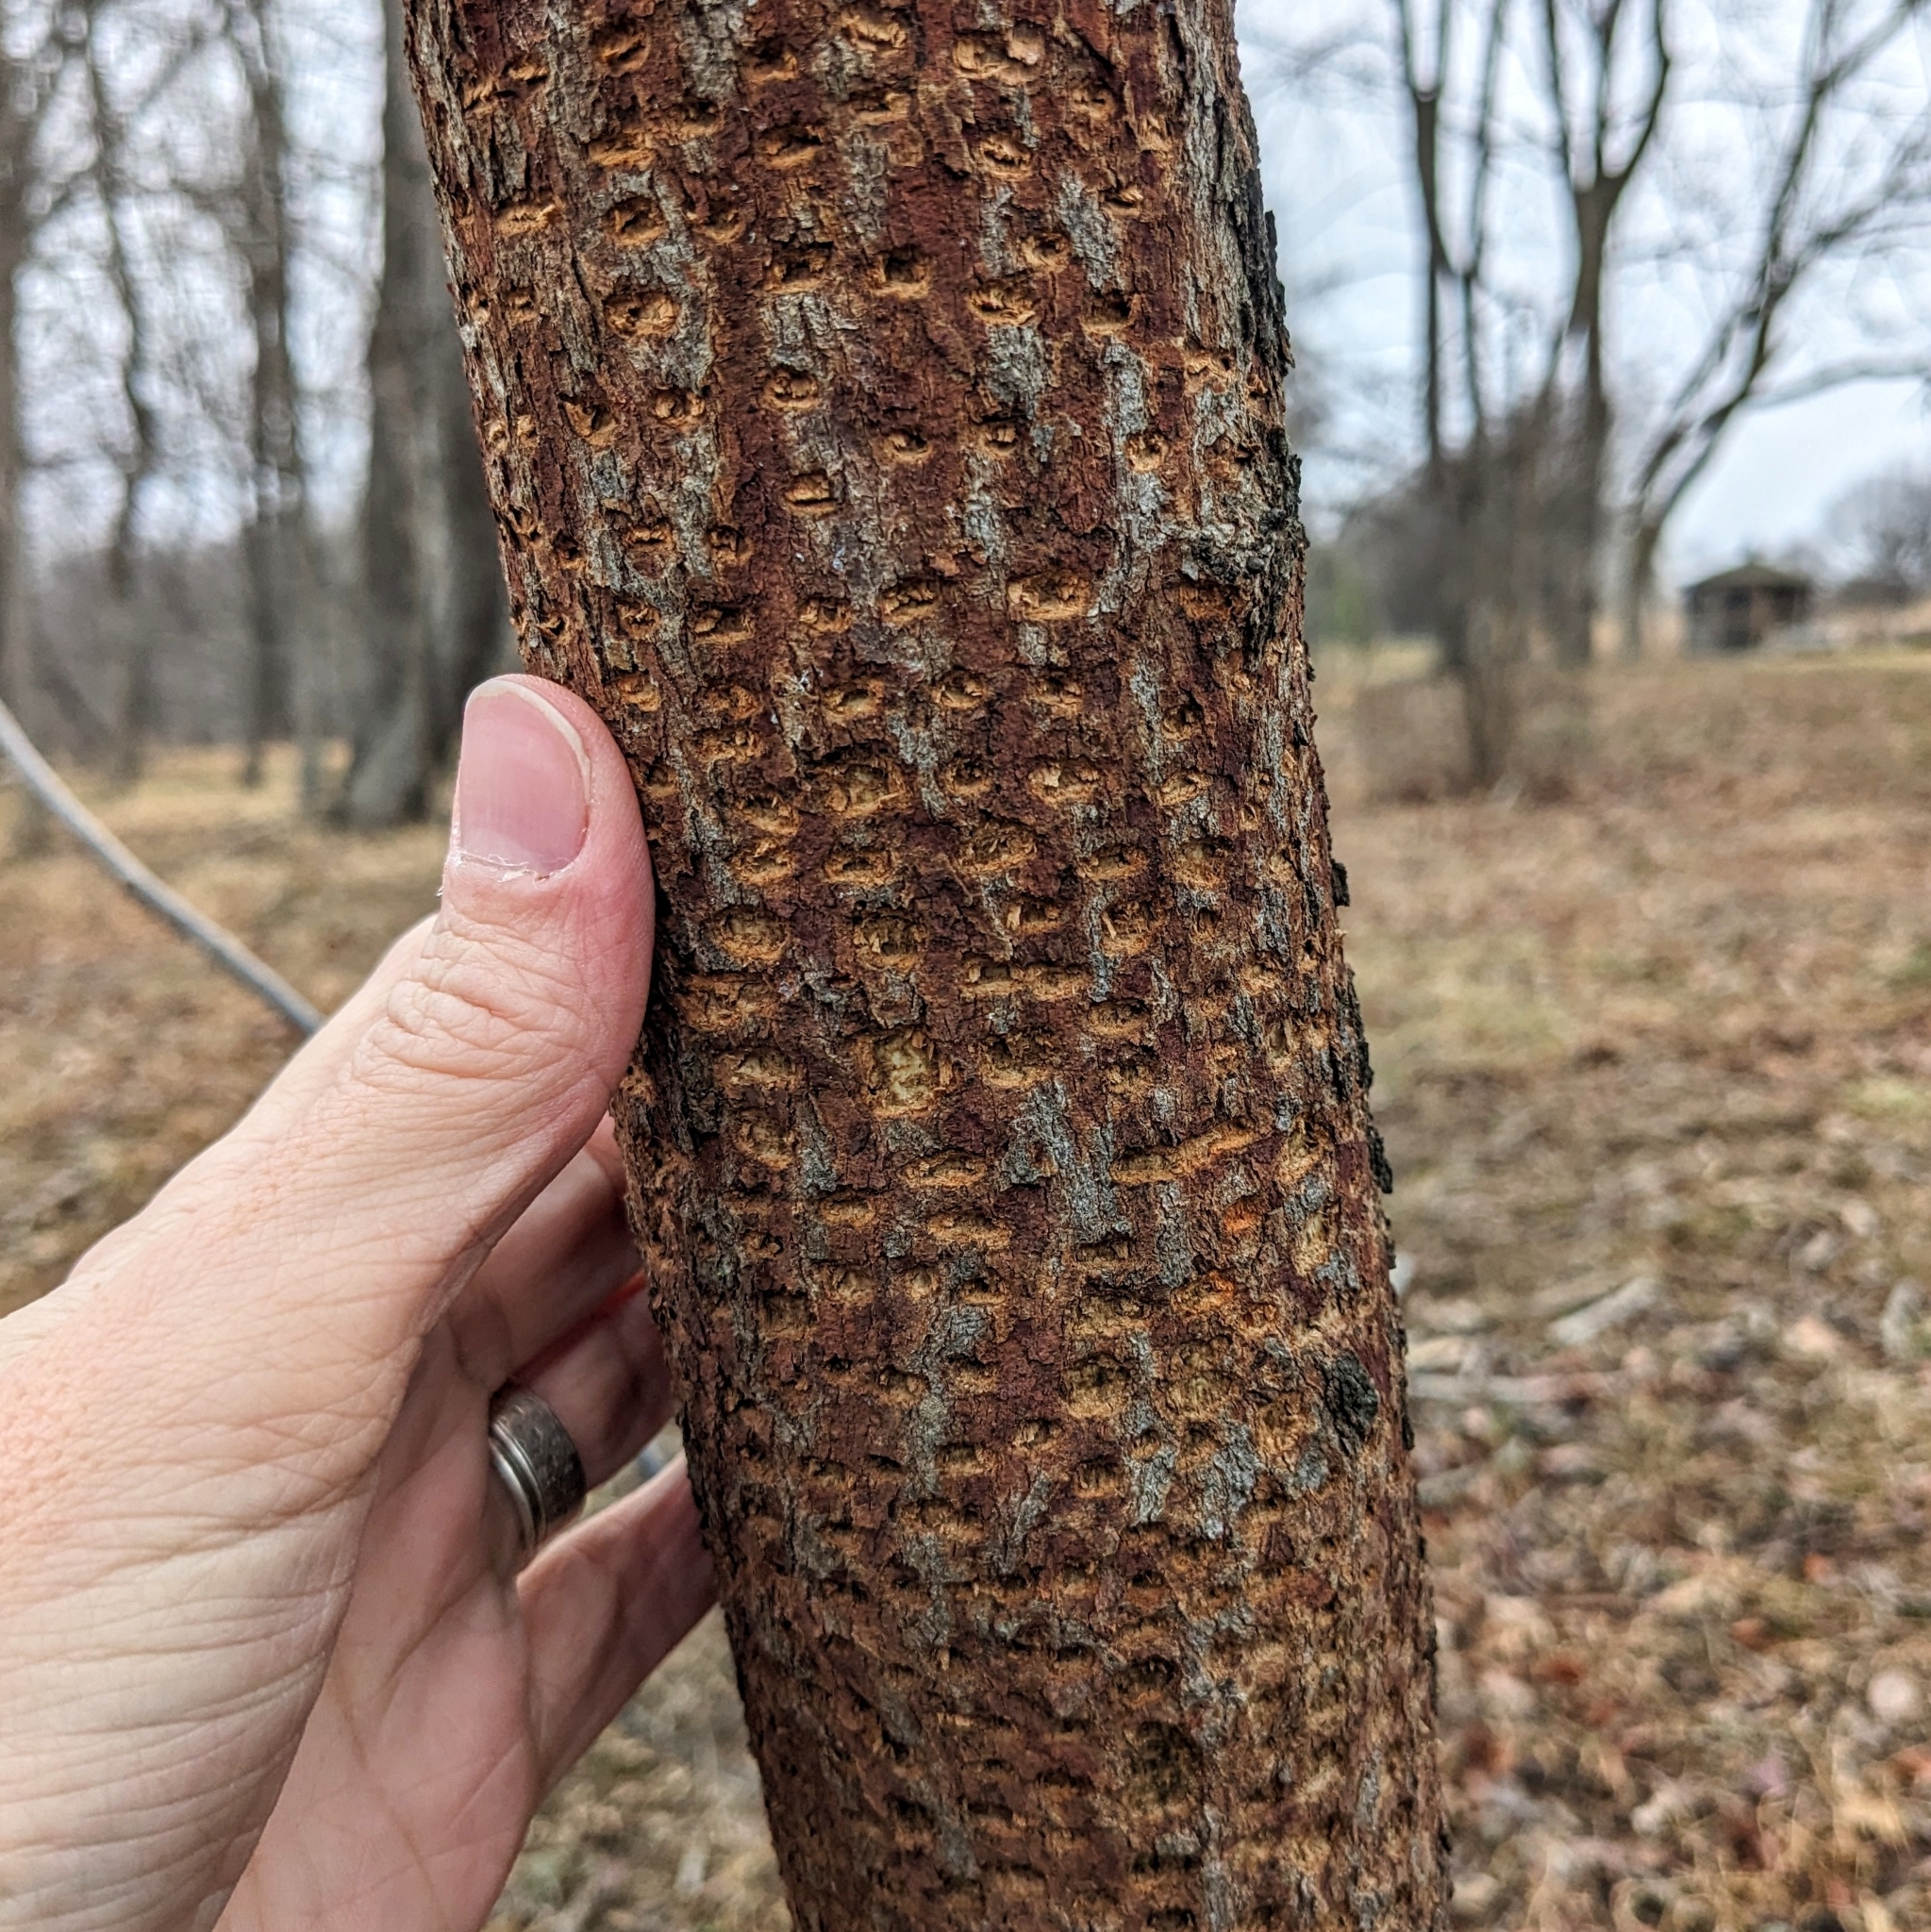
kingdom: Animalia
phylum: Chordata
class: Aves
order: Piciformes
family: Picidae
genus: Sphyrapicus
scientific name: Sphyrapicus varius
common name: Yellow-bellied sapsucker
